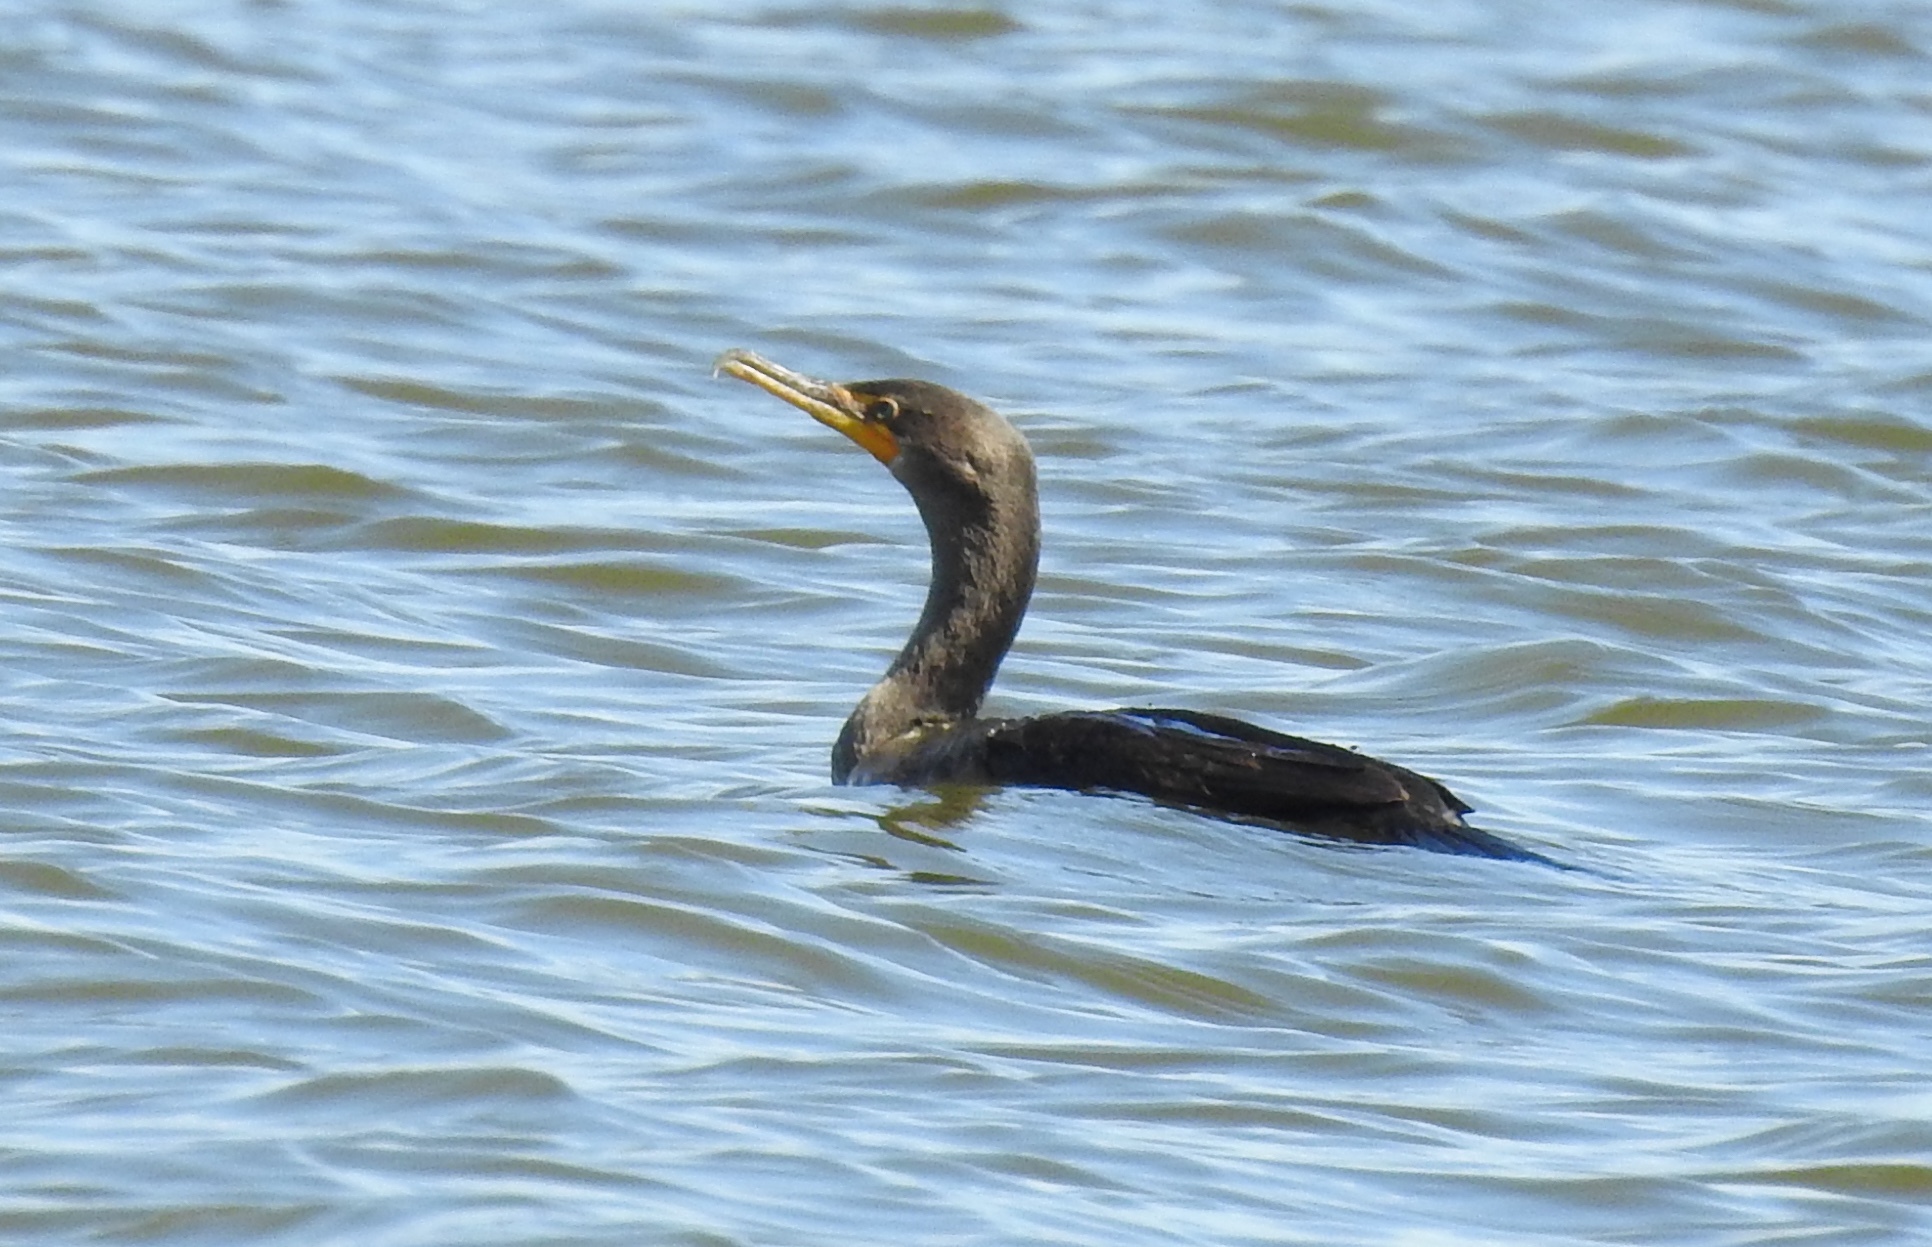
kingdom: Animalia
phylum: Chordata
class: Aves
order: Suliformes
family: Phalacrocoracidae
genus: Phalacrocorax
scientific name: Phalacrocorax auritus
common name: Double-crested cormorant
